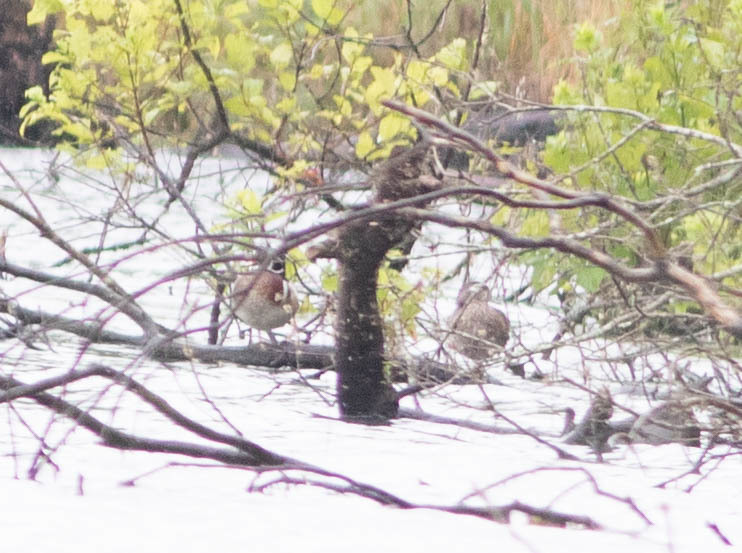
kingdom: Animalia
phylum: Chordata
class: Aves
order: Anseriformes
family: Anatidae
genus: Aix
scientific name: Aix sponsa
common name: Wood duck
